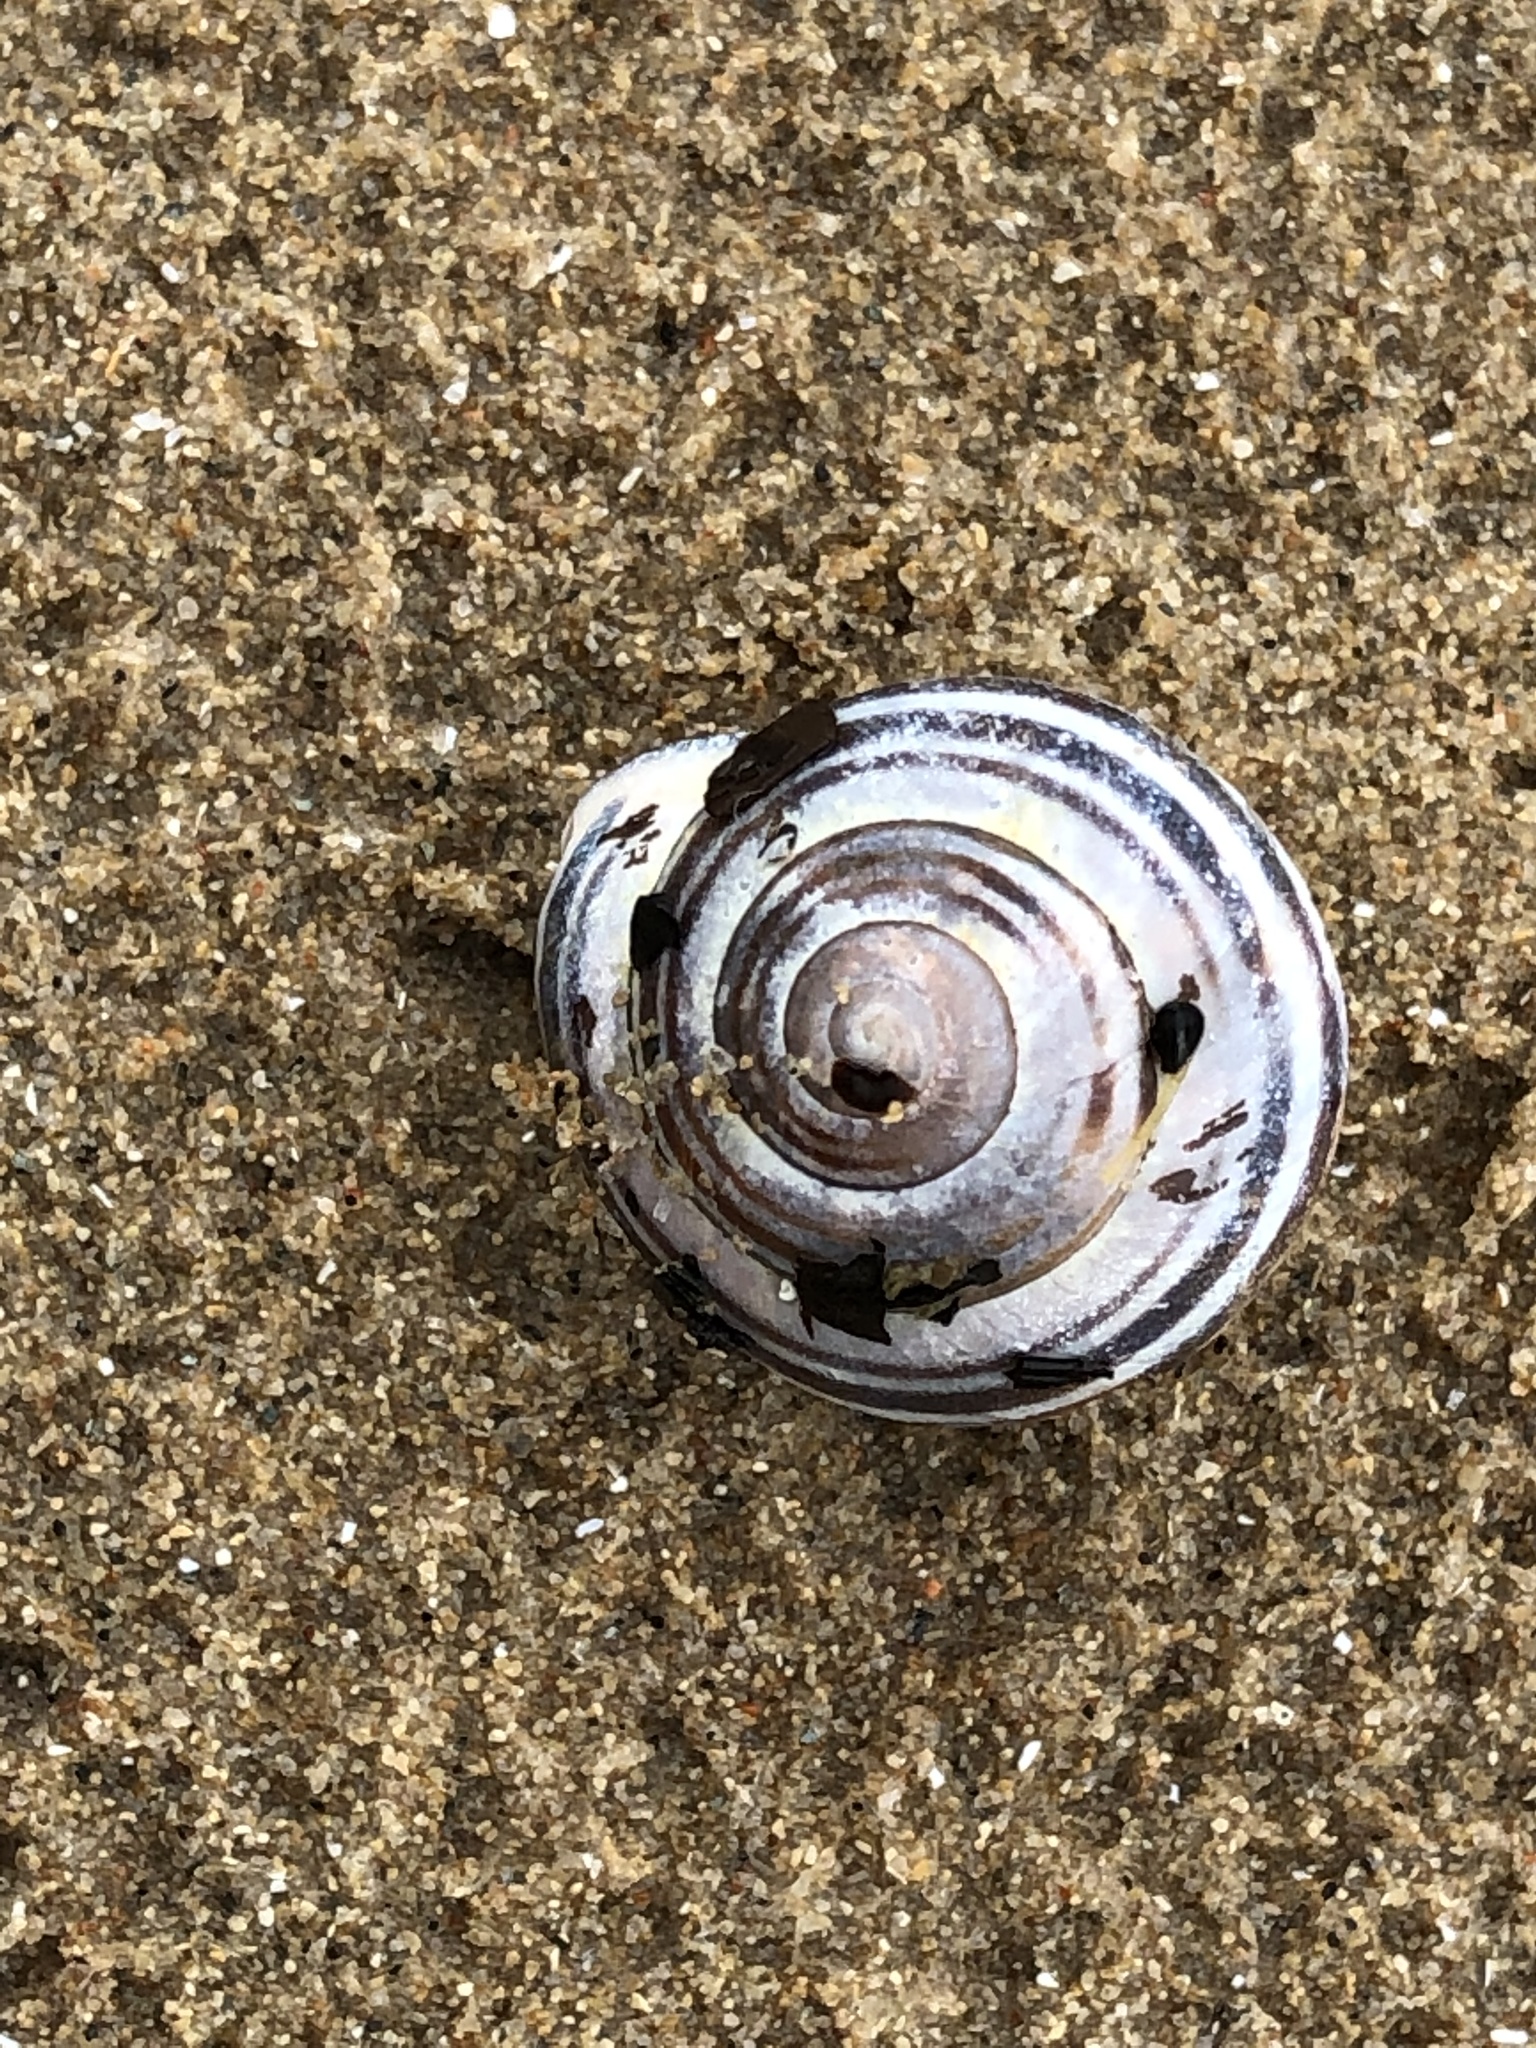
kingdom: Animalia
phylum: Mollusca
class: Gastropoda
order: Stylommatophora
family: Helicidae
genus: Cepaea
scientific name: Cepaea nemoralis
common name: Grovesnail
